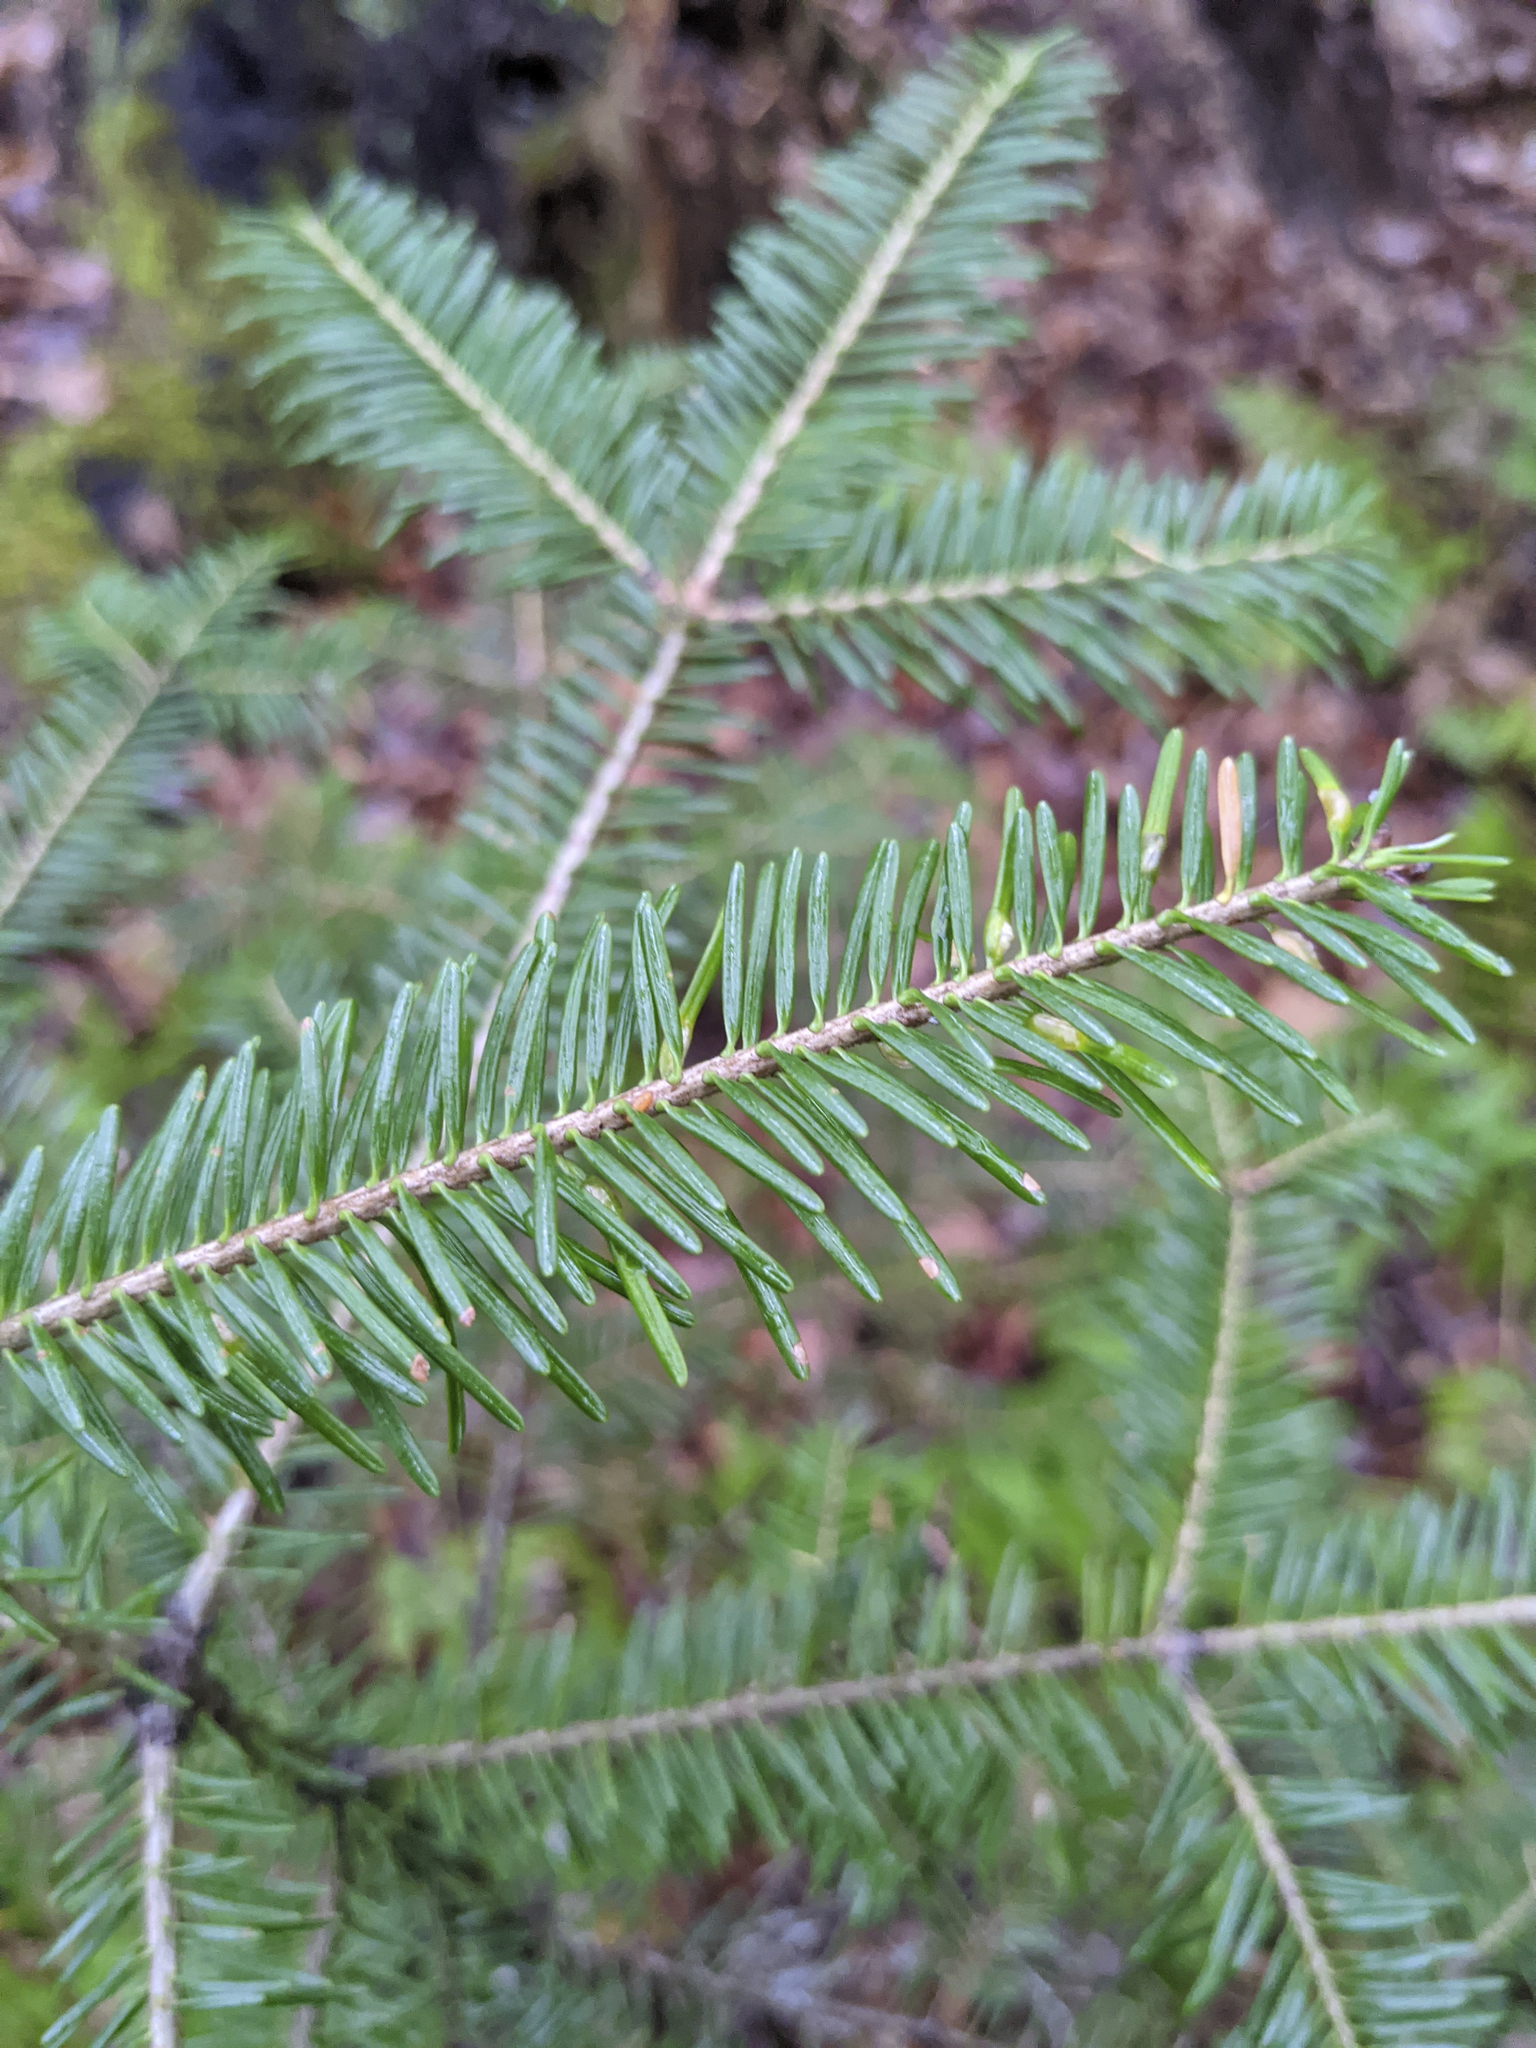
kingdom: Animalia
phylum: Arthropoda
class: Insecta
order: Diptera
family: Cecidomyiidae
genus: Paradiplosis
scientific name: Paradiplosis tumifex
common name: Gall midge
